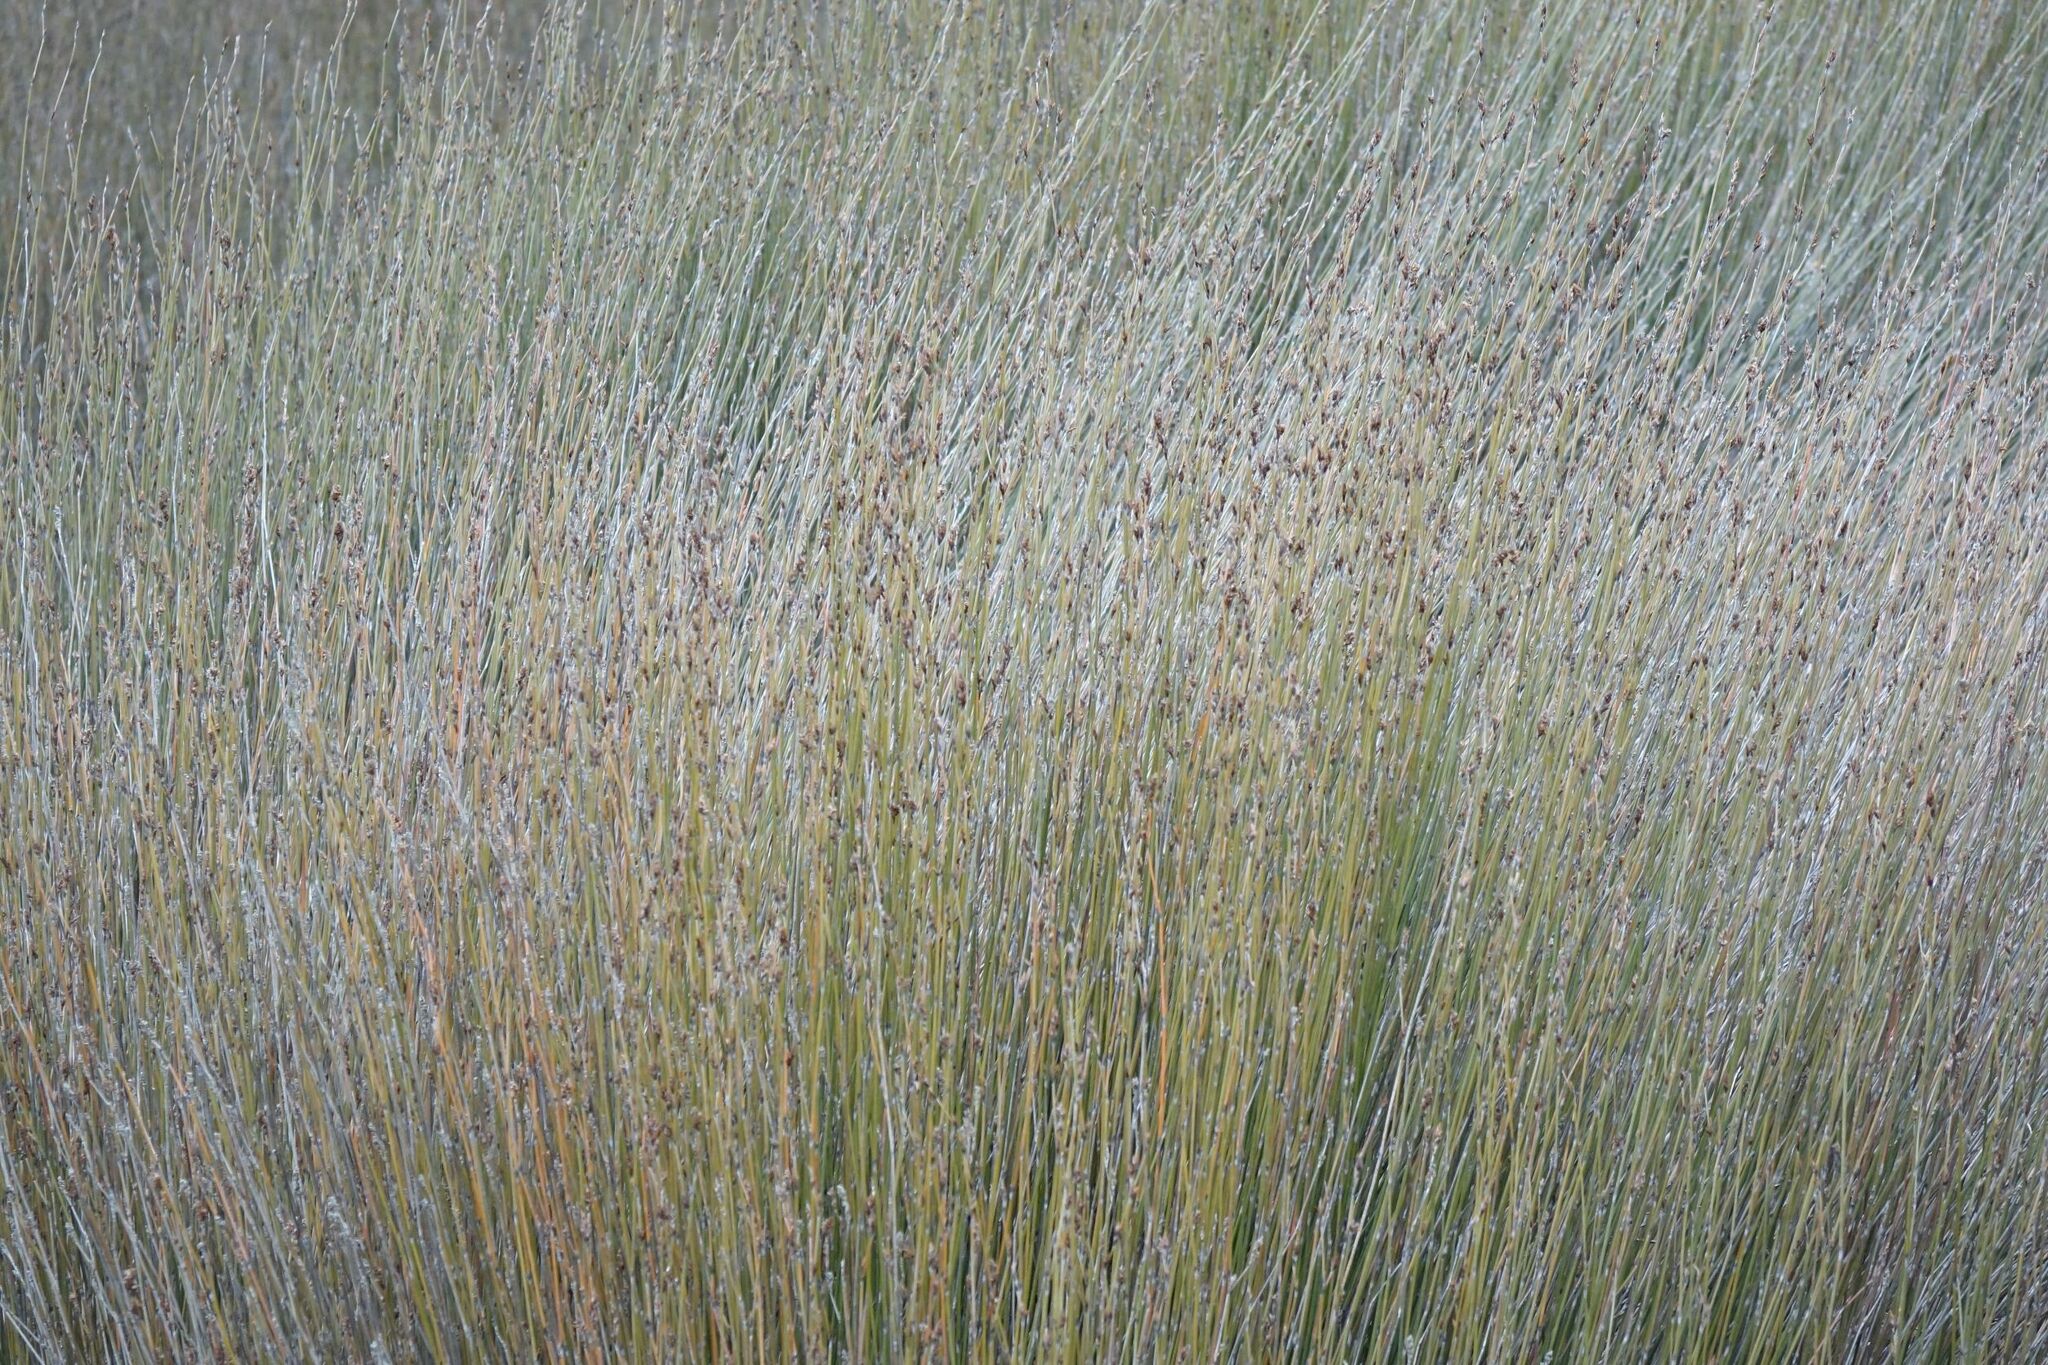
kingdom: Plantae
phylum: Tracheophyta
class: Liliopsida
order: Poales
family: Restionaceae
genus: Apodasmia
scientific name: Apodasmia similis
